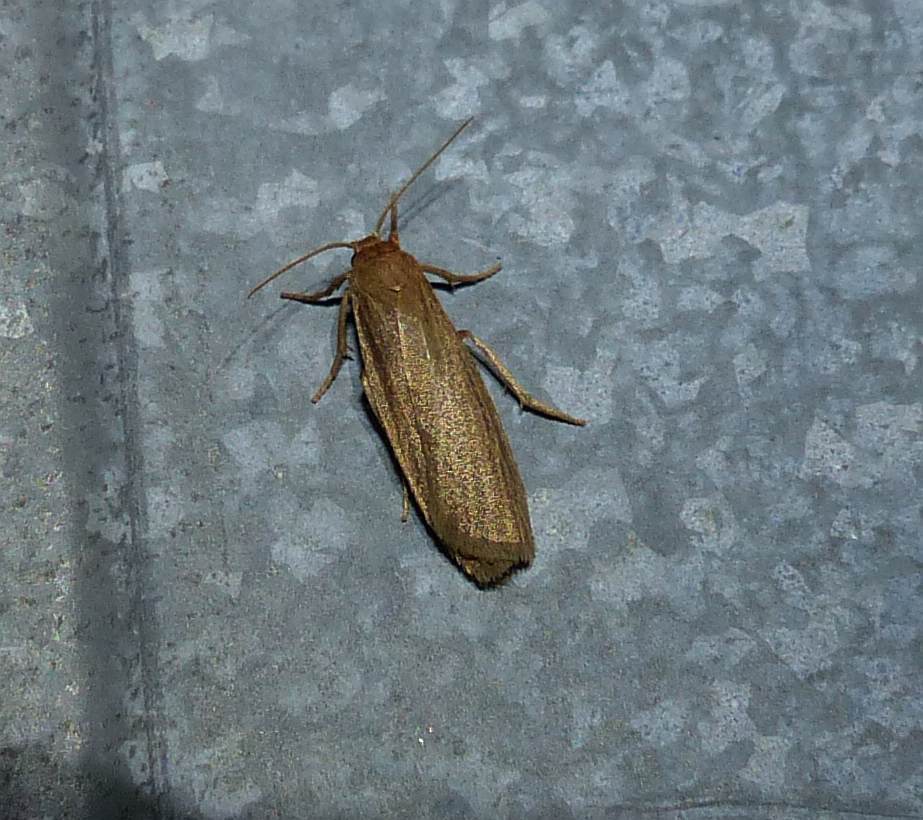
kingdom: Animalia
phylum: Arthropoda
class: Insecta
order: Lepidoptera
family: Erebidae
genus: Crambidia
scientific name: Crambidia pallida
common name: Pale lichen moth
